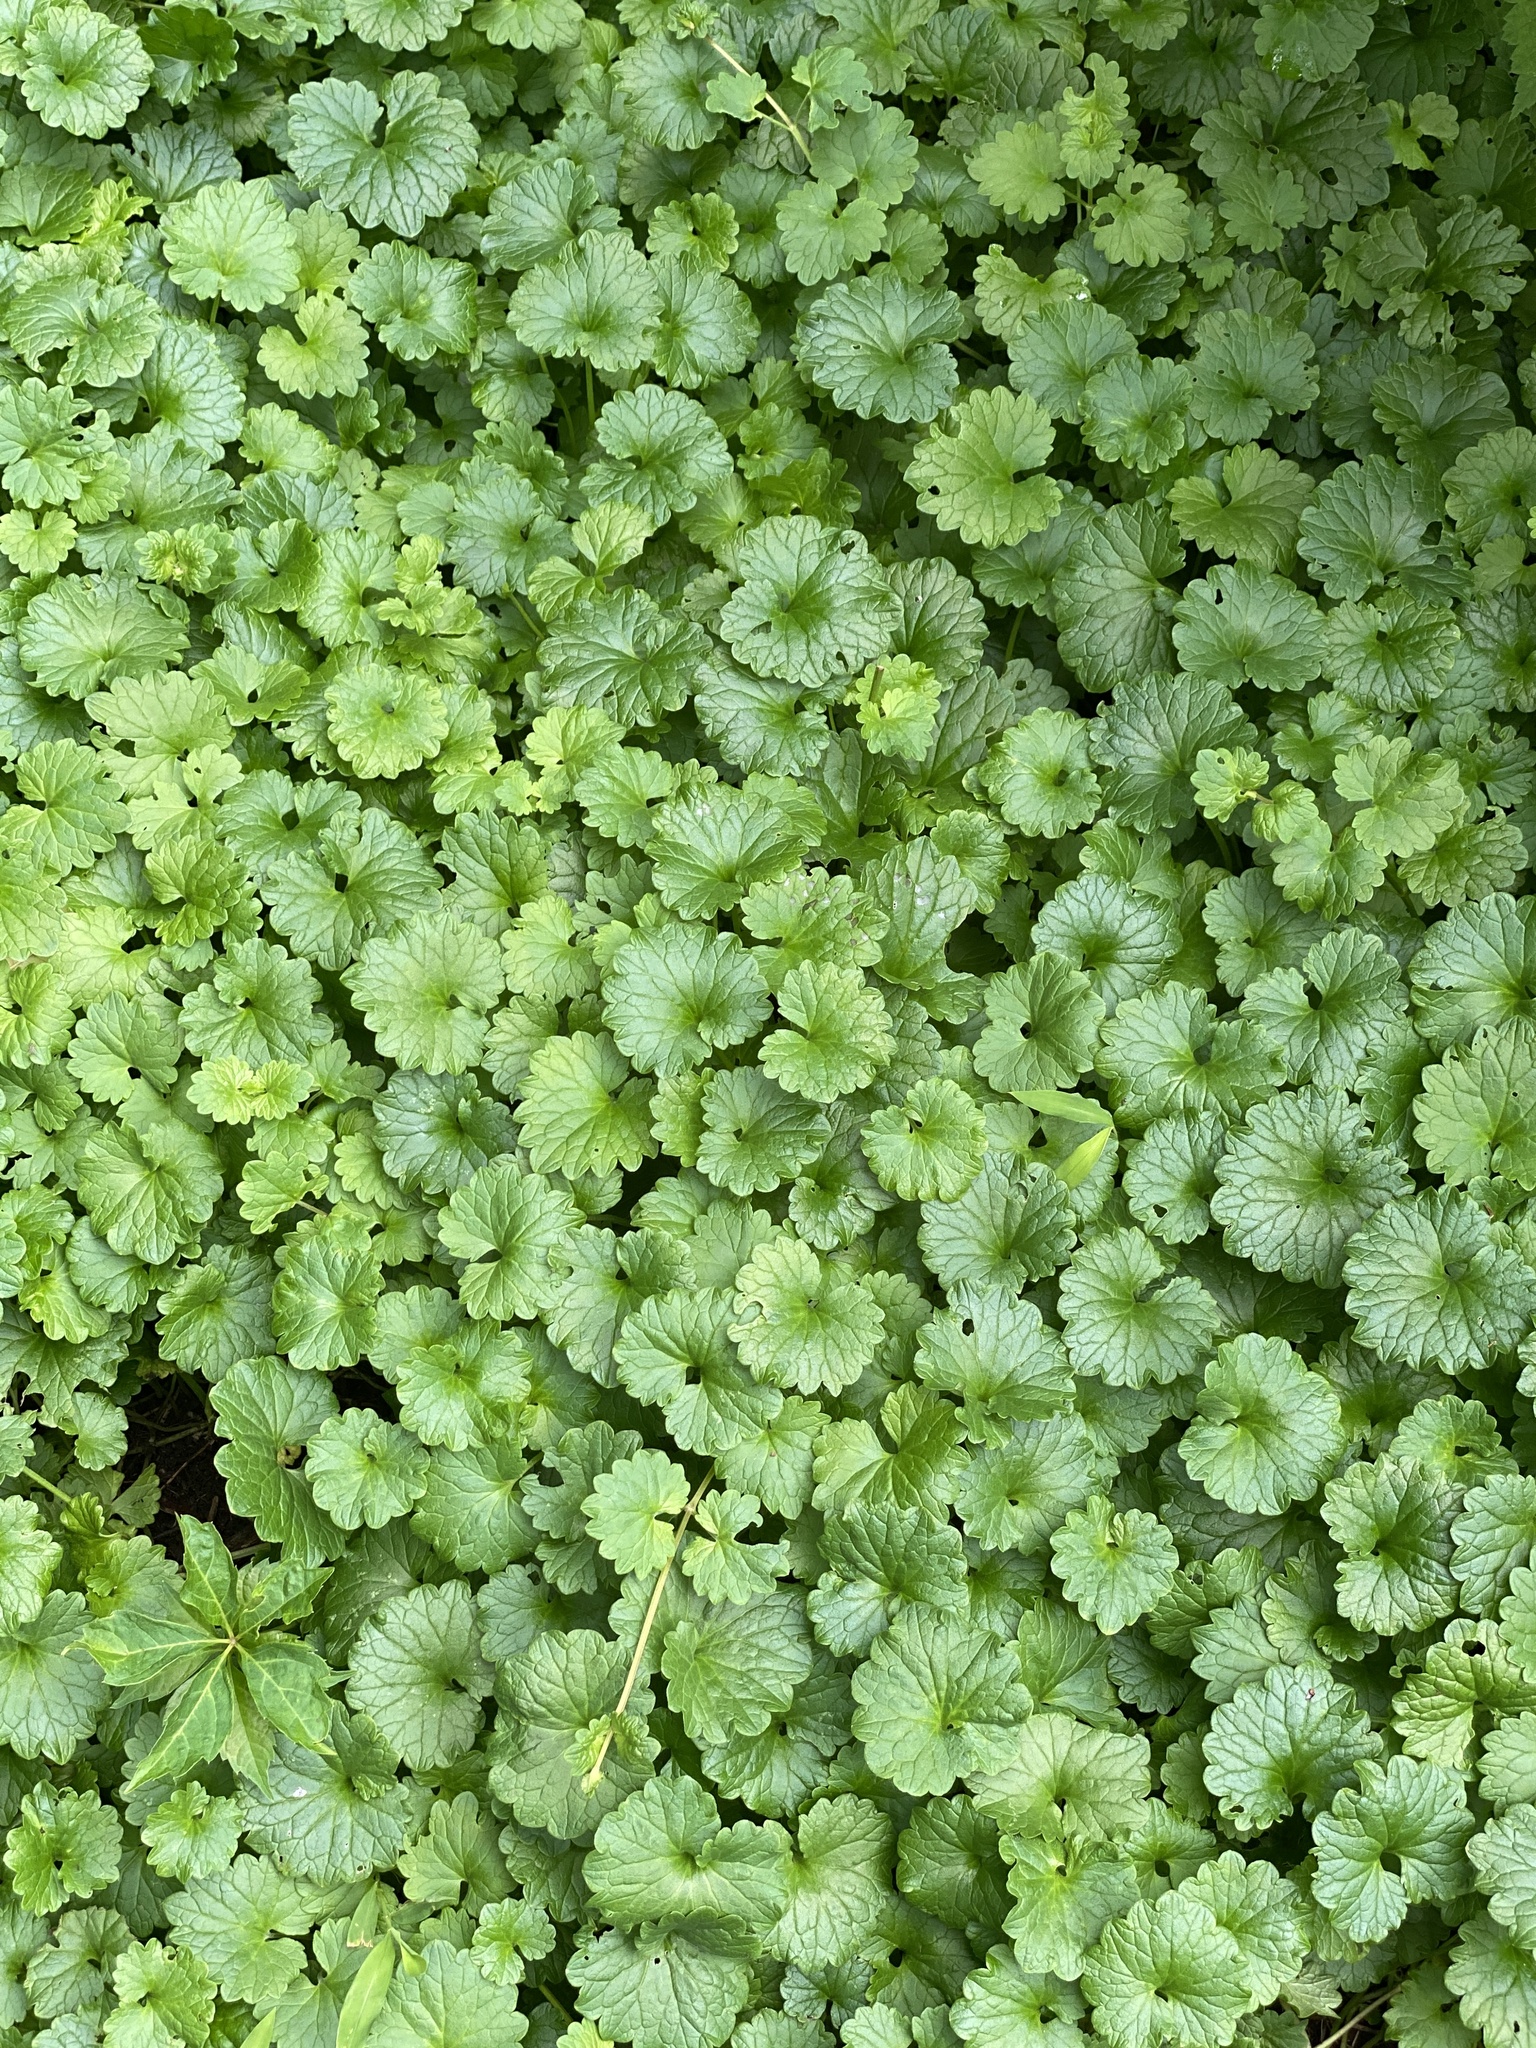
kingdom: Plantae
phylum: Tracheophyta
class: Magnoliopsida
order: Lamiales
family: Lamiaceae
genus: Glechoma
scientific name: Glechoma hederacea
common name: Ground ivy
